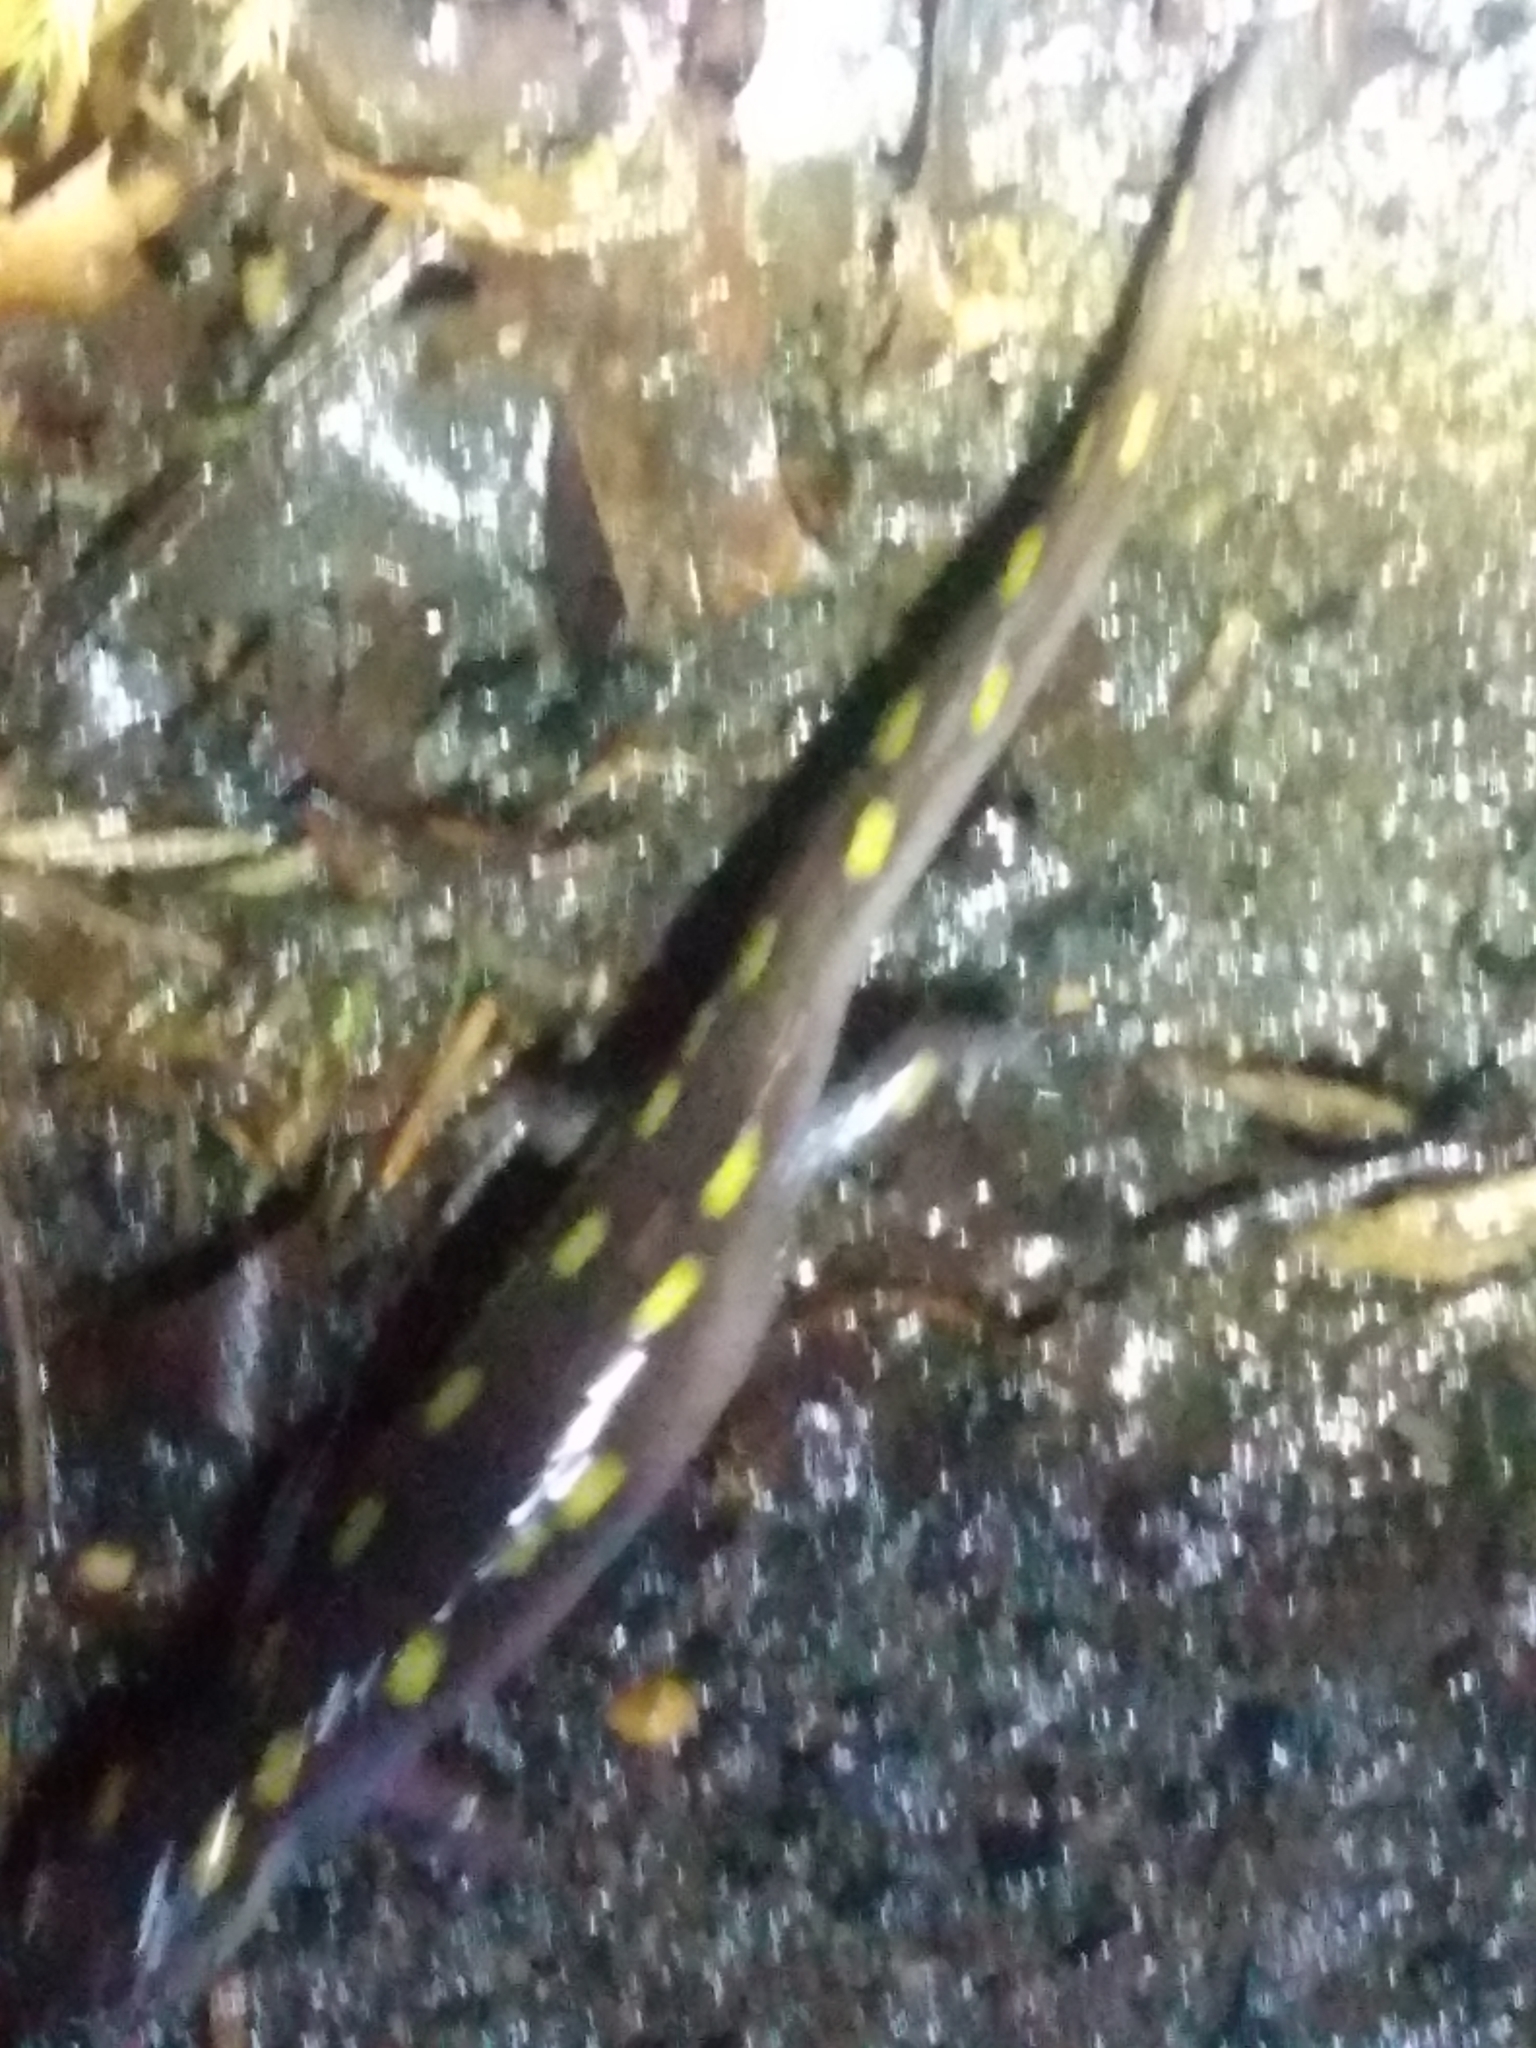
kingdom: Animalia
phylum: Chordata
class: Amphibia
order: Caudata
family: Ambystomatidae
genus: Ambystoma
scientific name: Ambystoma maculatum
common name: Spotted salamander
